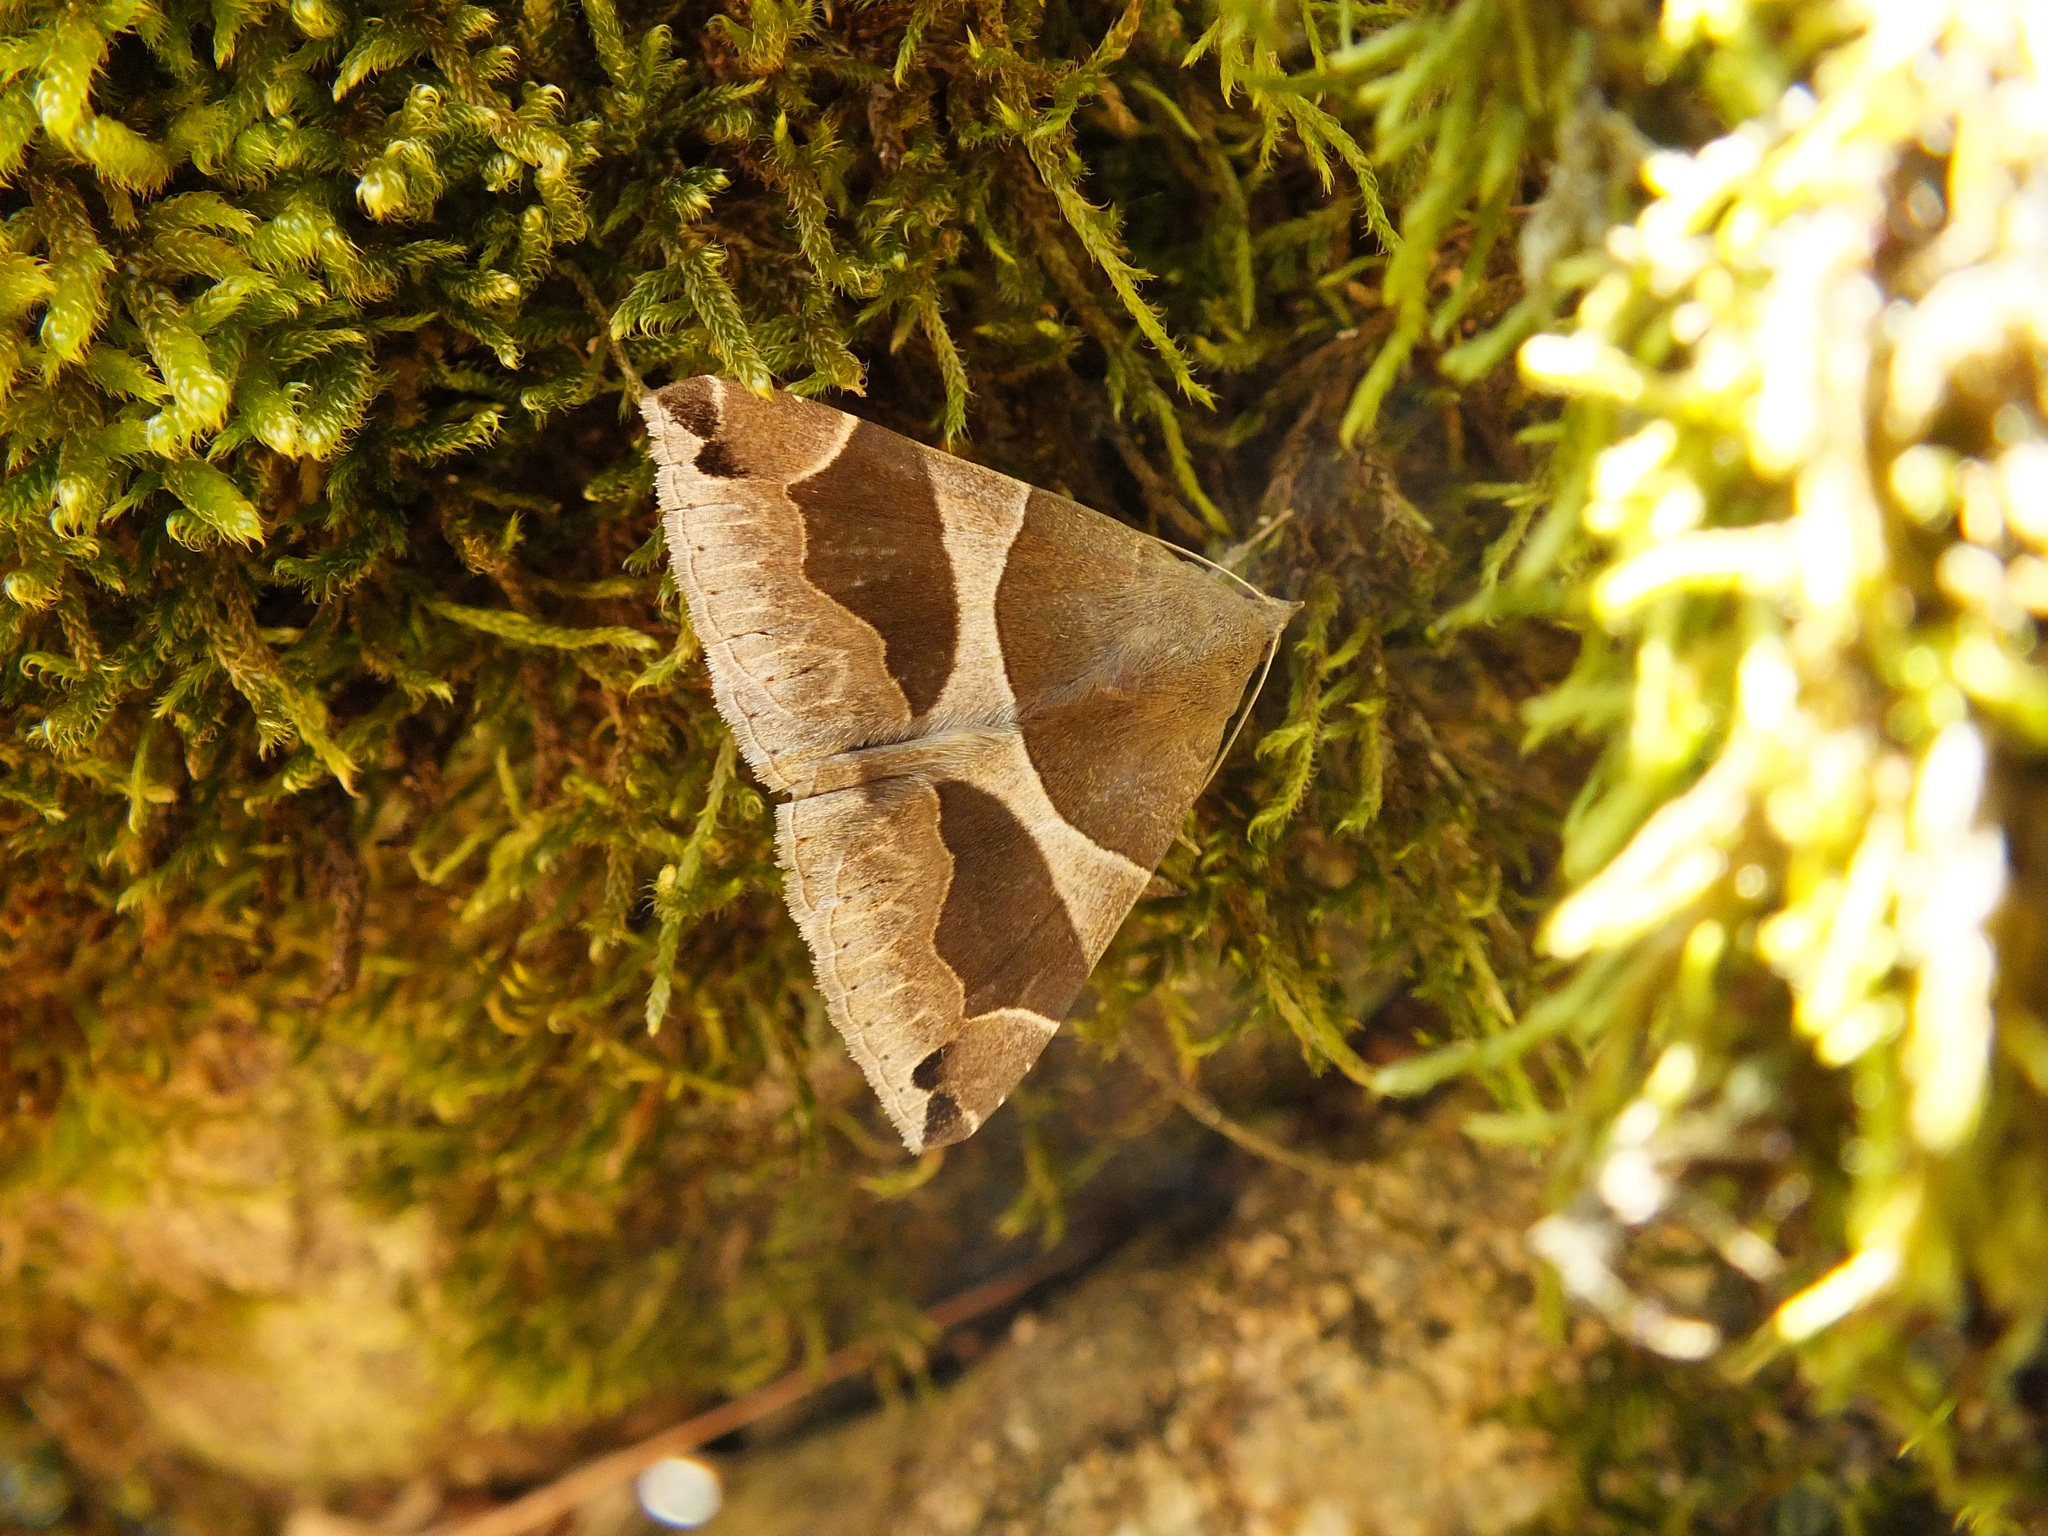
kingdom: Animalia
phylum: Arthropoda
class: Insecta
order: Lepidoptera
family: Erebidae
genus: Dysgonia
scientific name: Dysgonia algira
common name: Passenger
